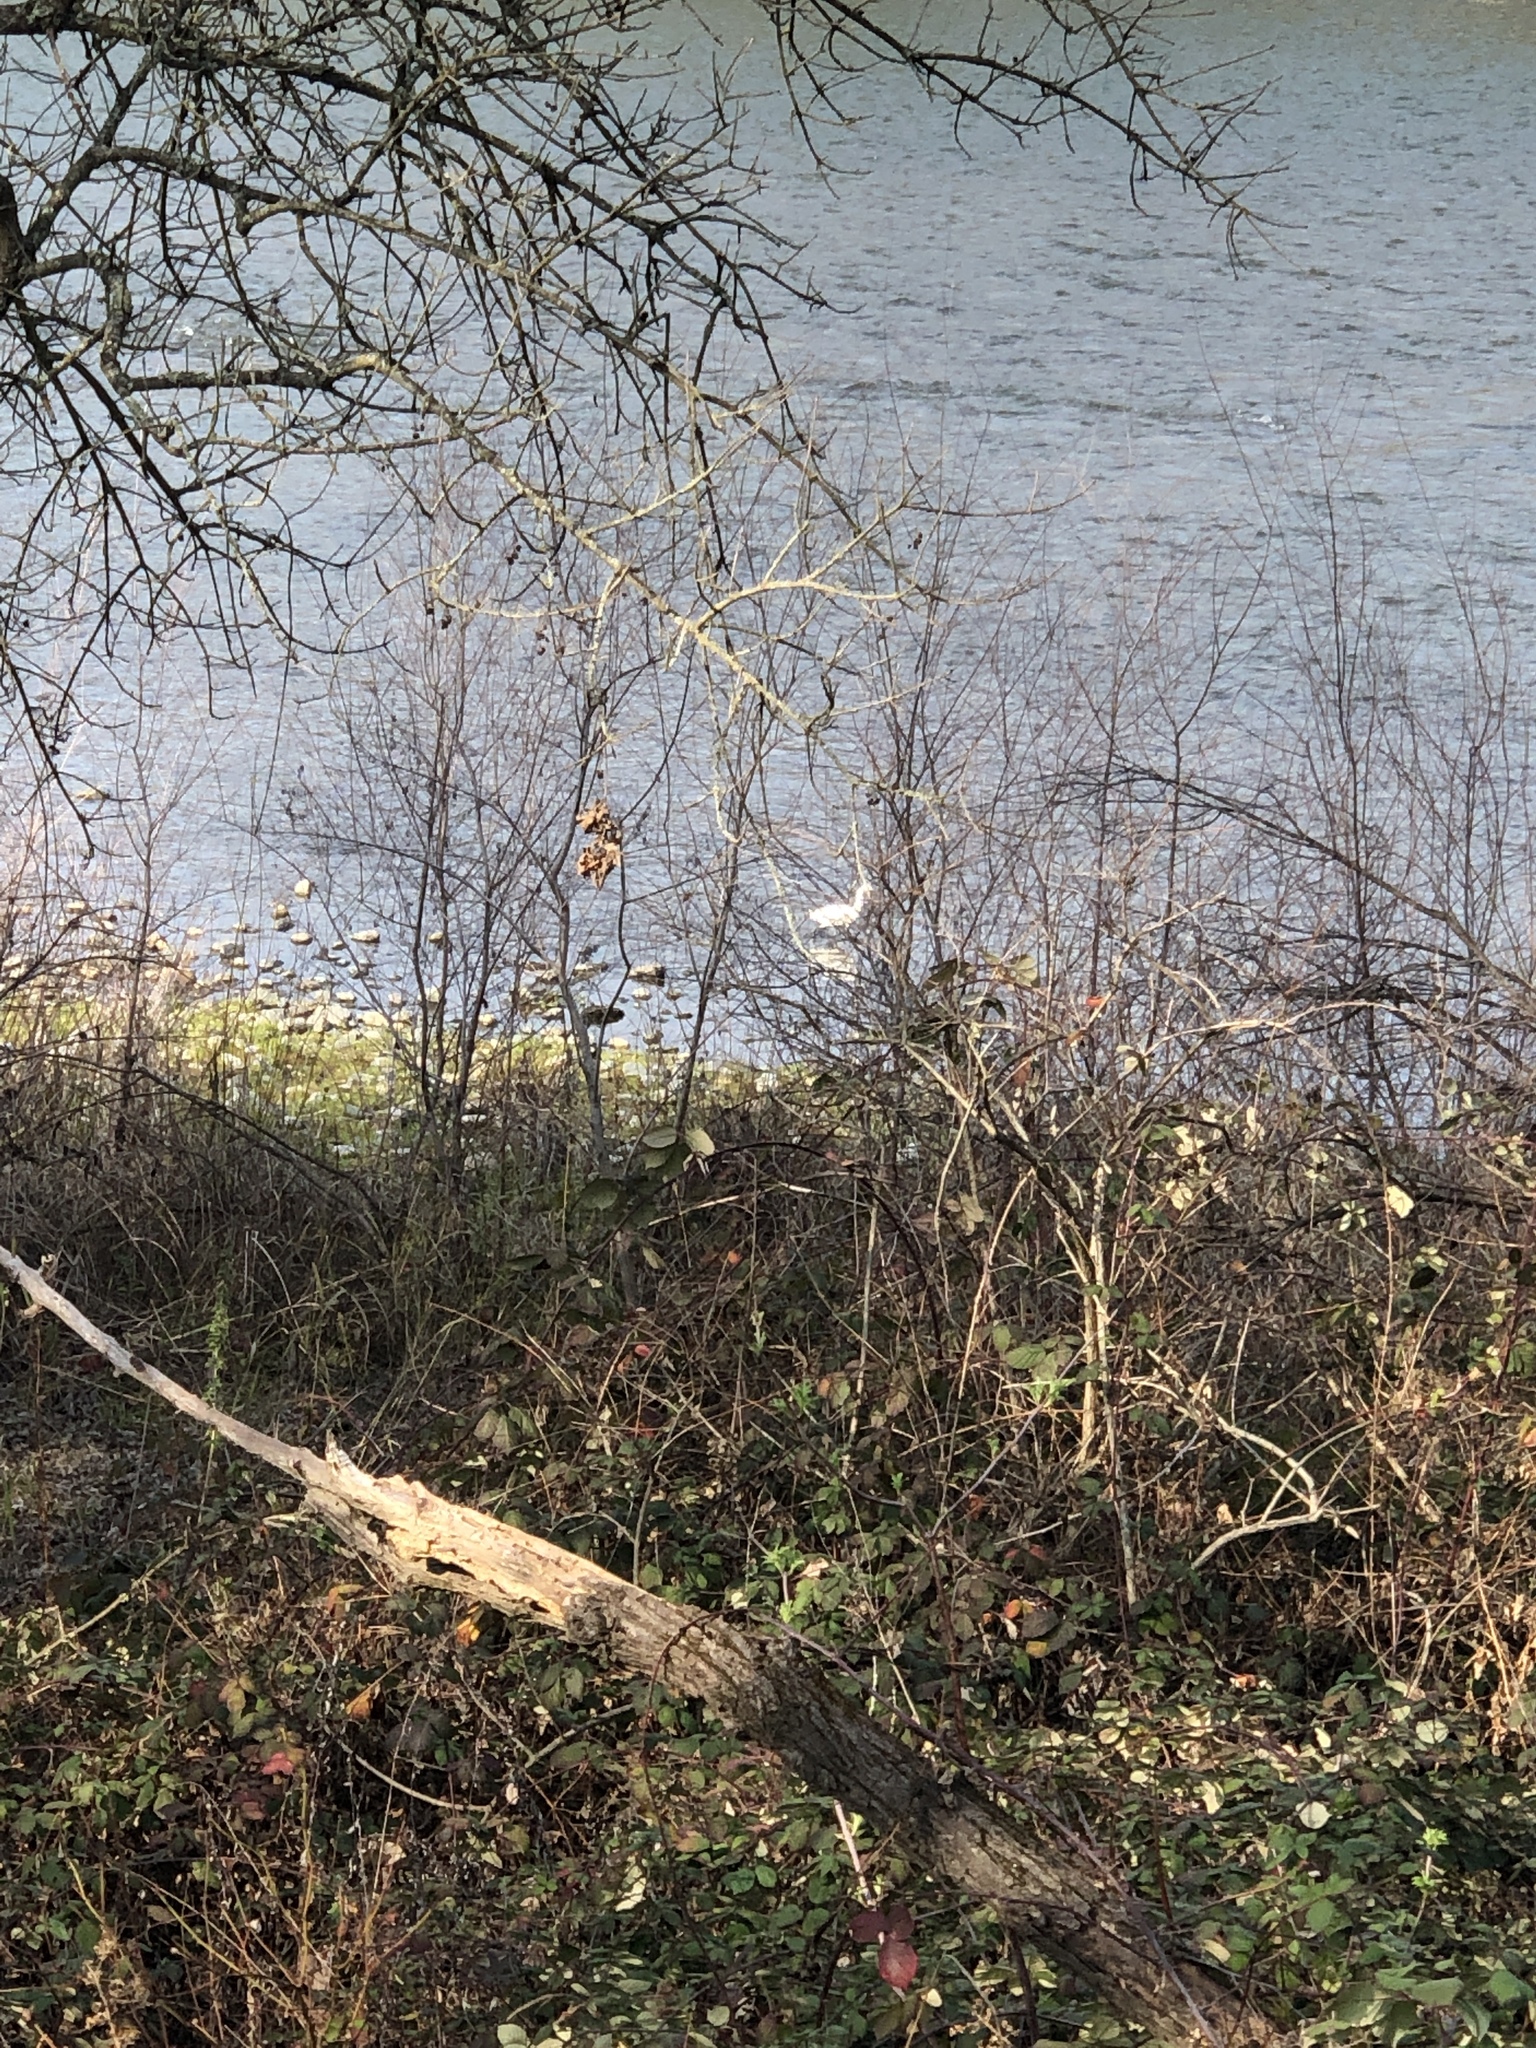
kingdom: Animalia
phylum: Chordata
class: Aves
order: Pelecaniformes
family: Ardeidae
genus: Egretta
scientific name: Egretta thula
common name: Snowy egret
